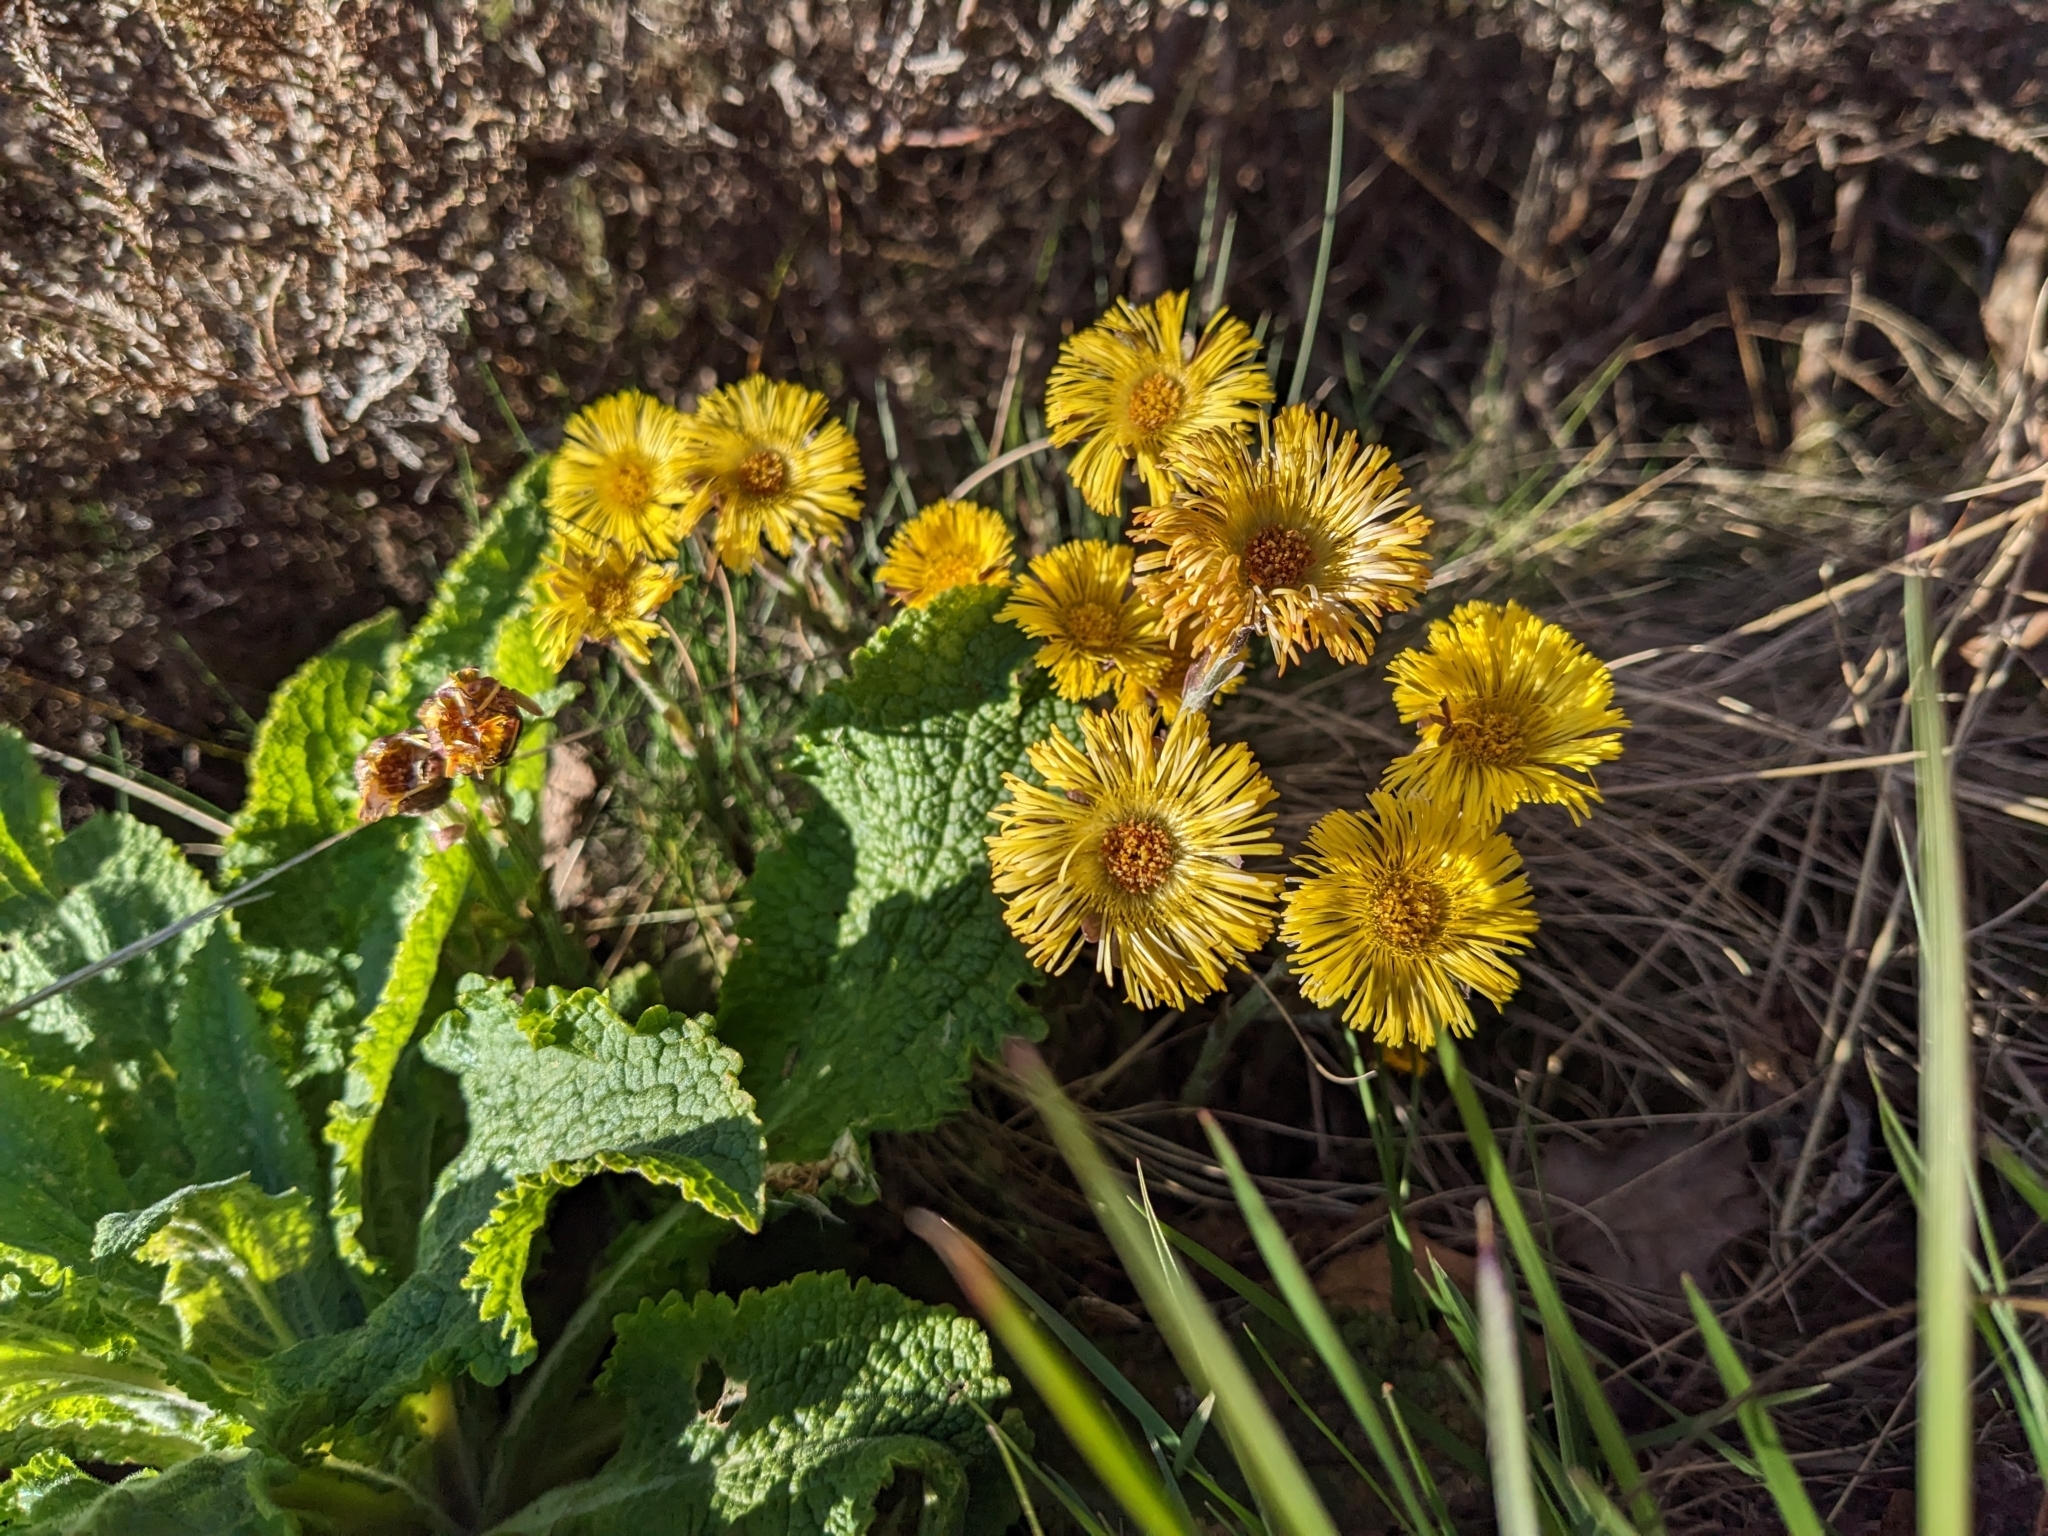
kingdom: Plantae
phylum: Tracheophyta
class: Magnoliopsida
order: Asterales
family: Asteraceae
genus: Tussilago
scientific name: Tussilago farfara
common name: Coltsfoot
